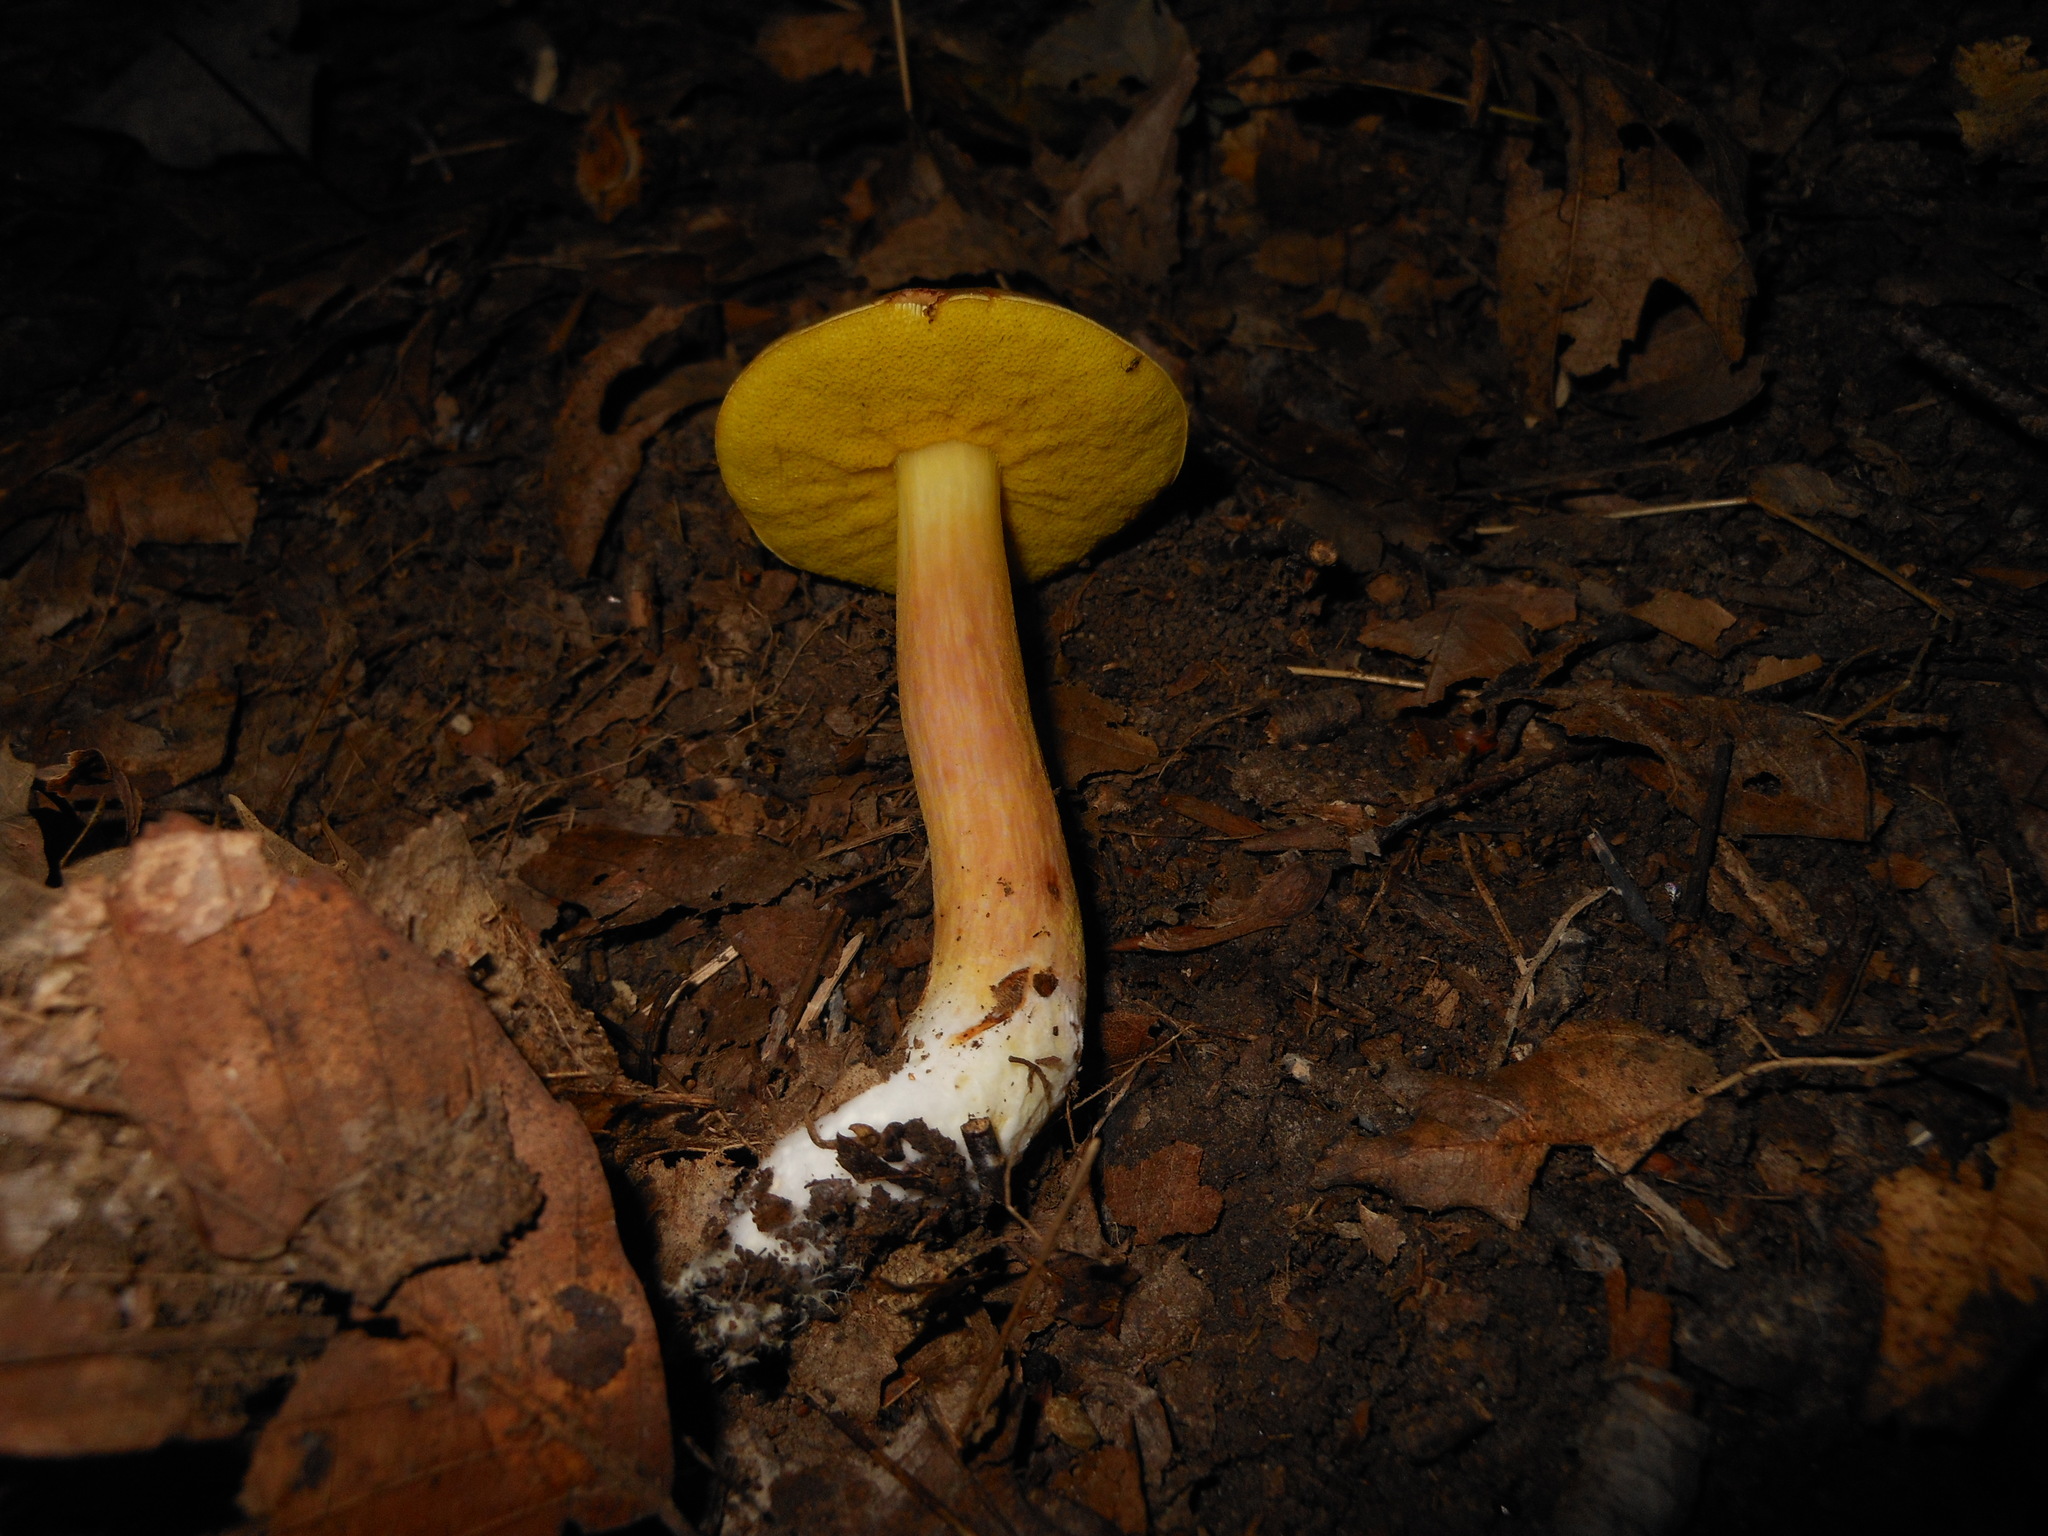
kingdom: Fungi
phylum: Basidiomycota
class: Agaricomycetes
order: Boletales
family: Boletaceae
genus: Aureoboletus
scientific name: Aureoboletus auriporus
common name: Sour gold-pored bolete
